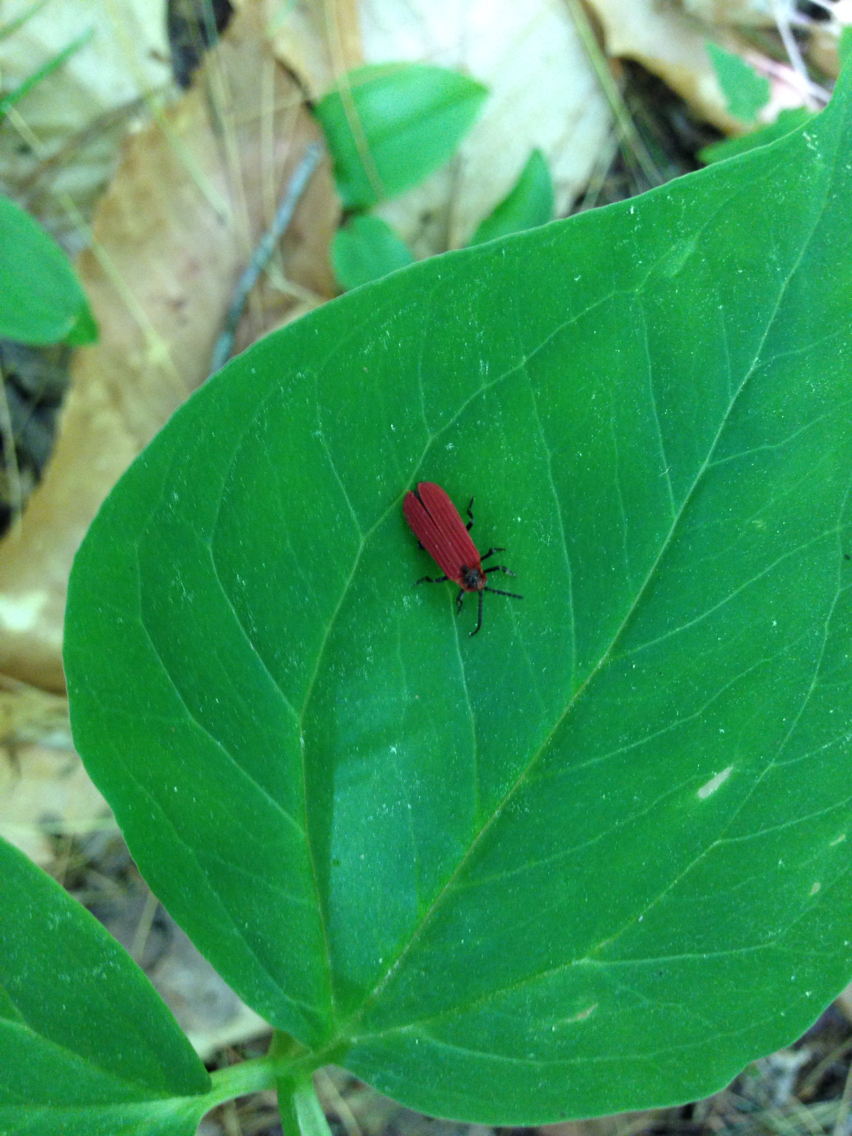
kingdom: Animalia
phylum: Arthropoda
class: Insecta
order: Coleoptera
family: Lycidae
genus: Dictyoptera
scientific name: Dictyoptera aurora
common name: Golden net-winged beetle
